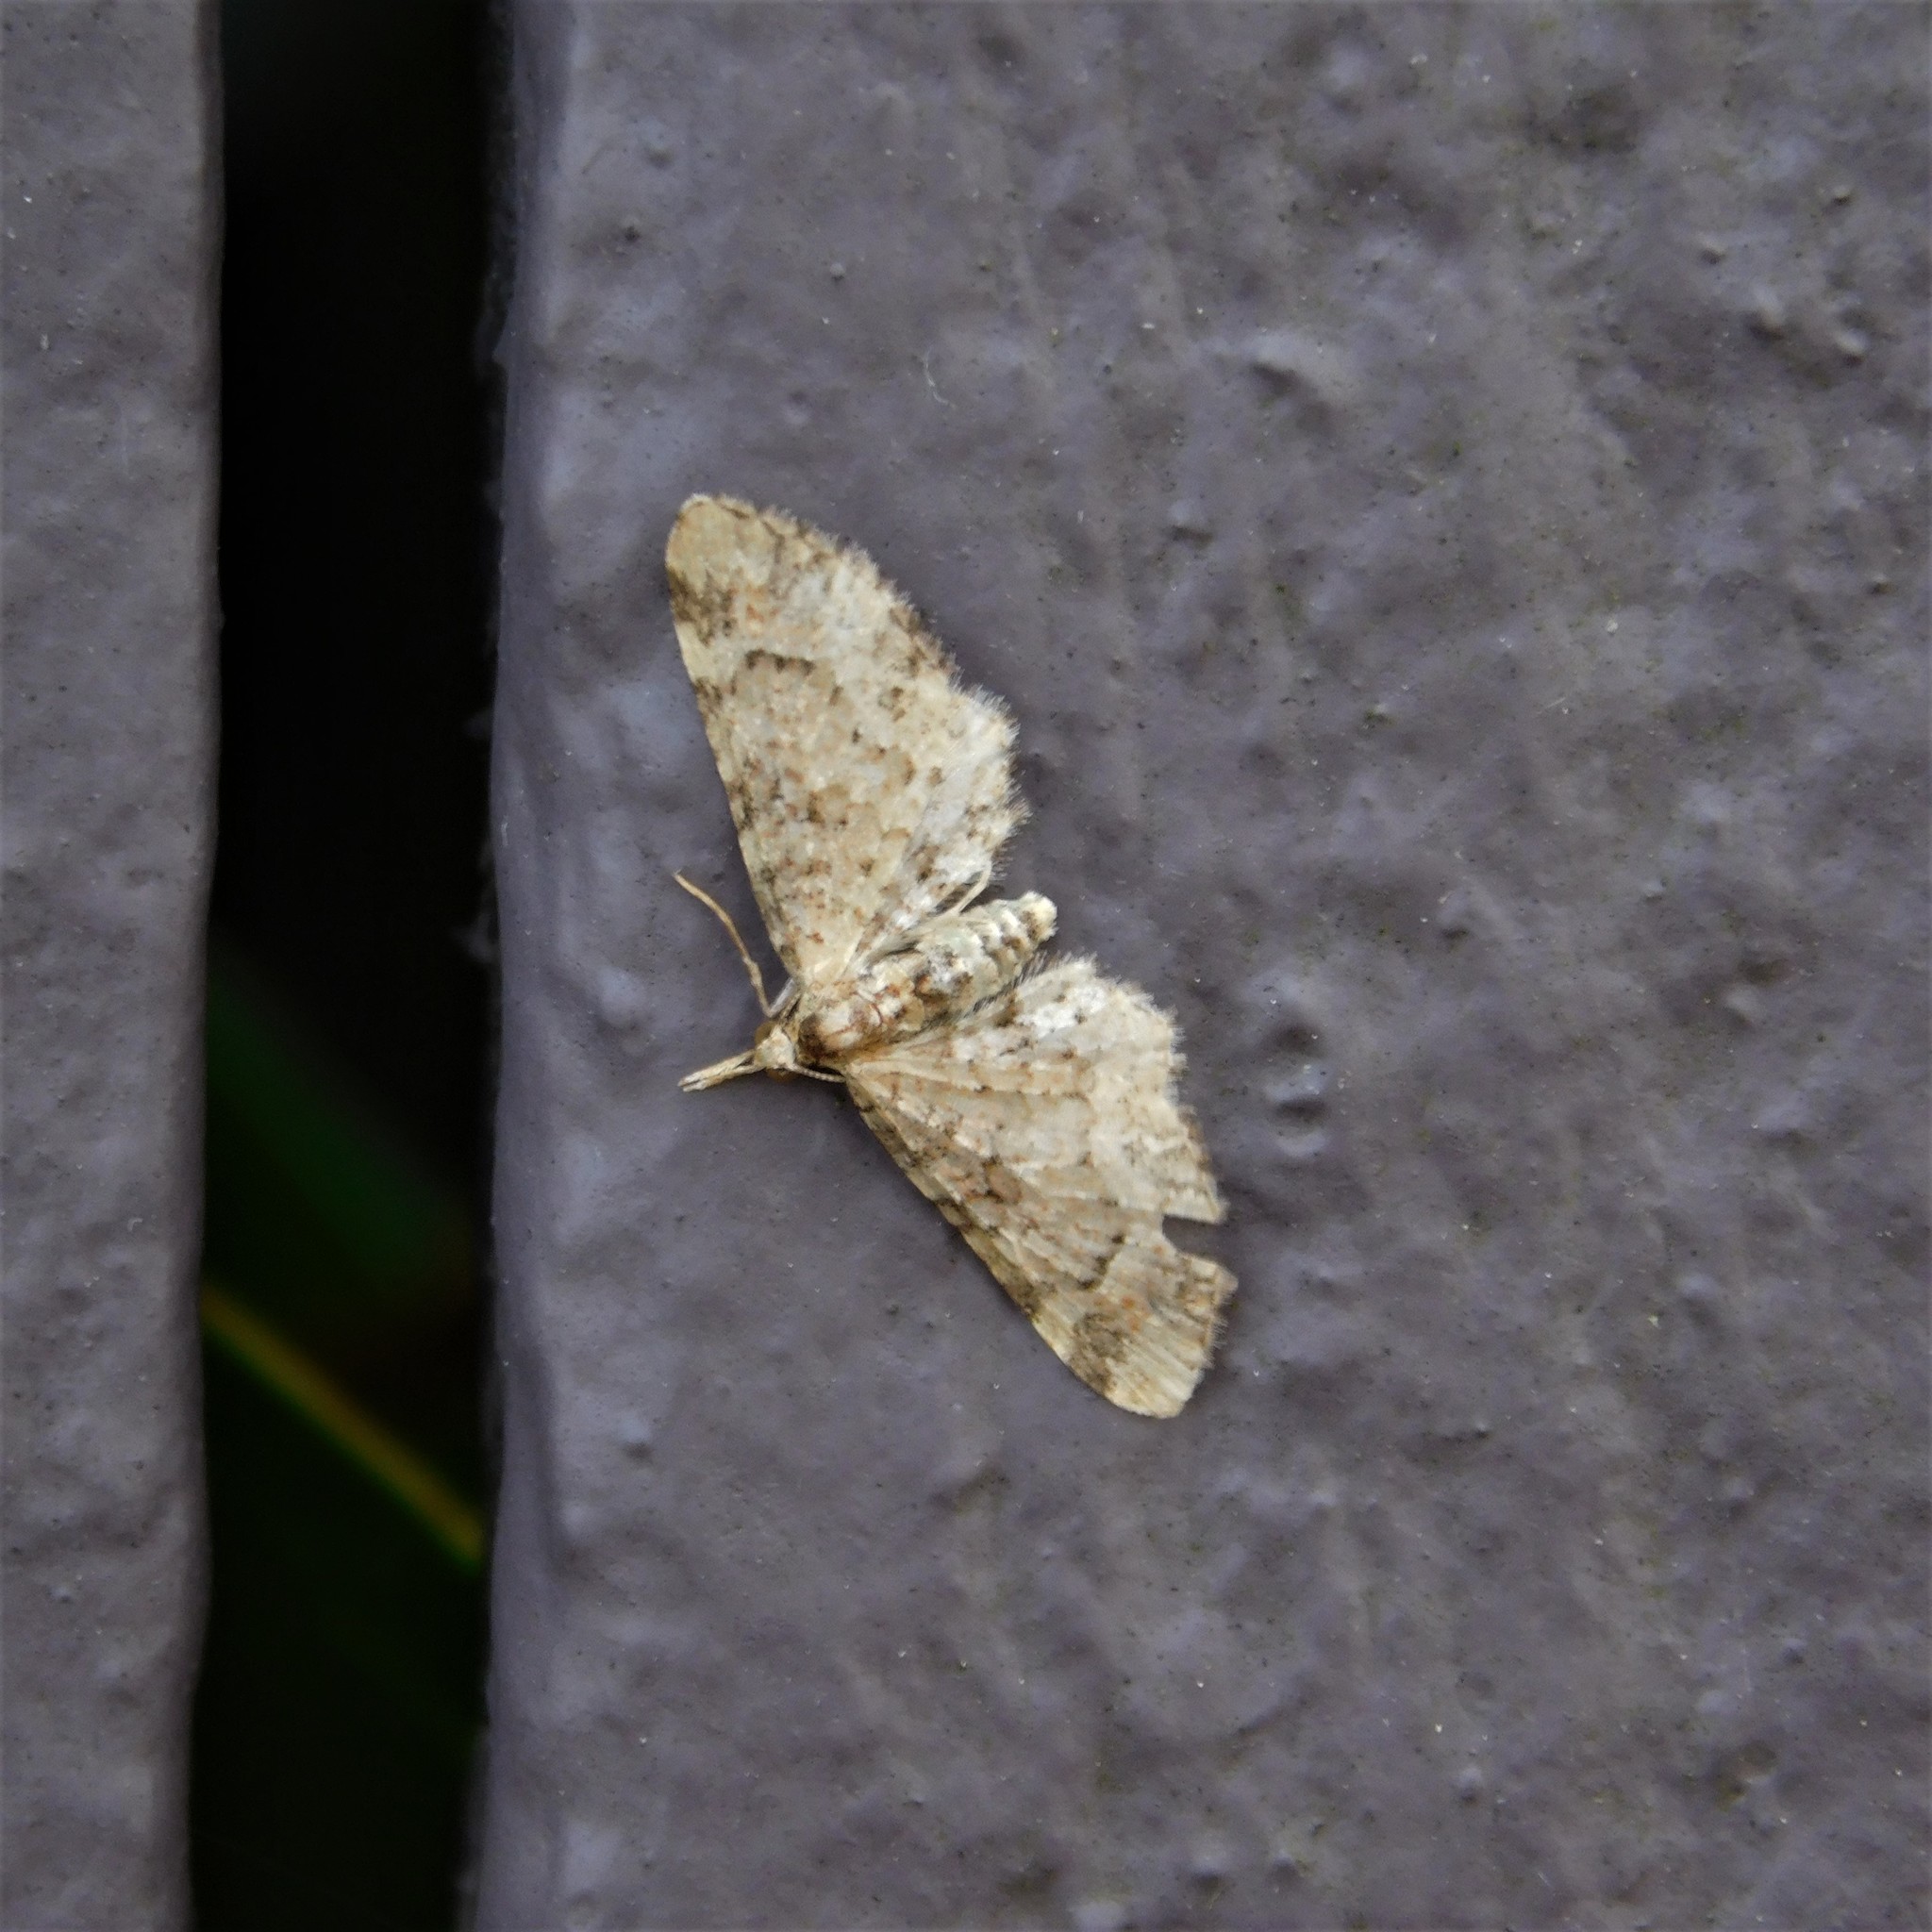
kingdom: Animalia
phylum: Arthropoda
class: Insecta
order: Lepidoptera
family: Geometridae
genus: Pasiphila
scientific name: Pasiphila plinthina
